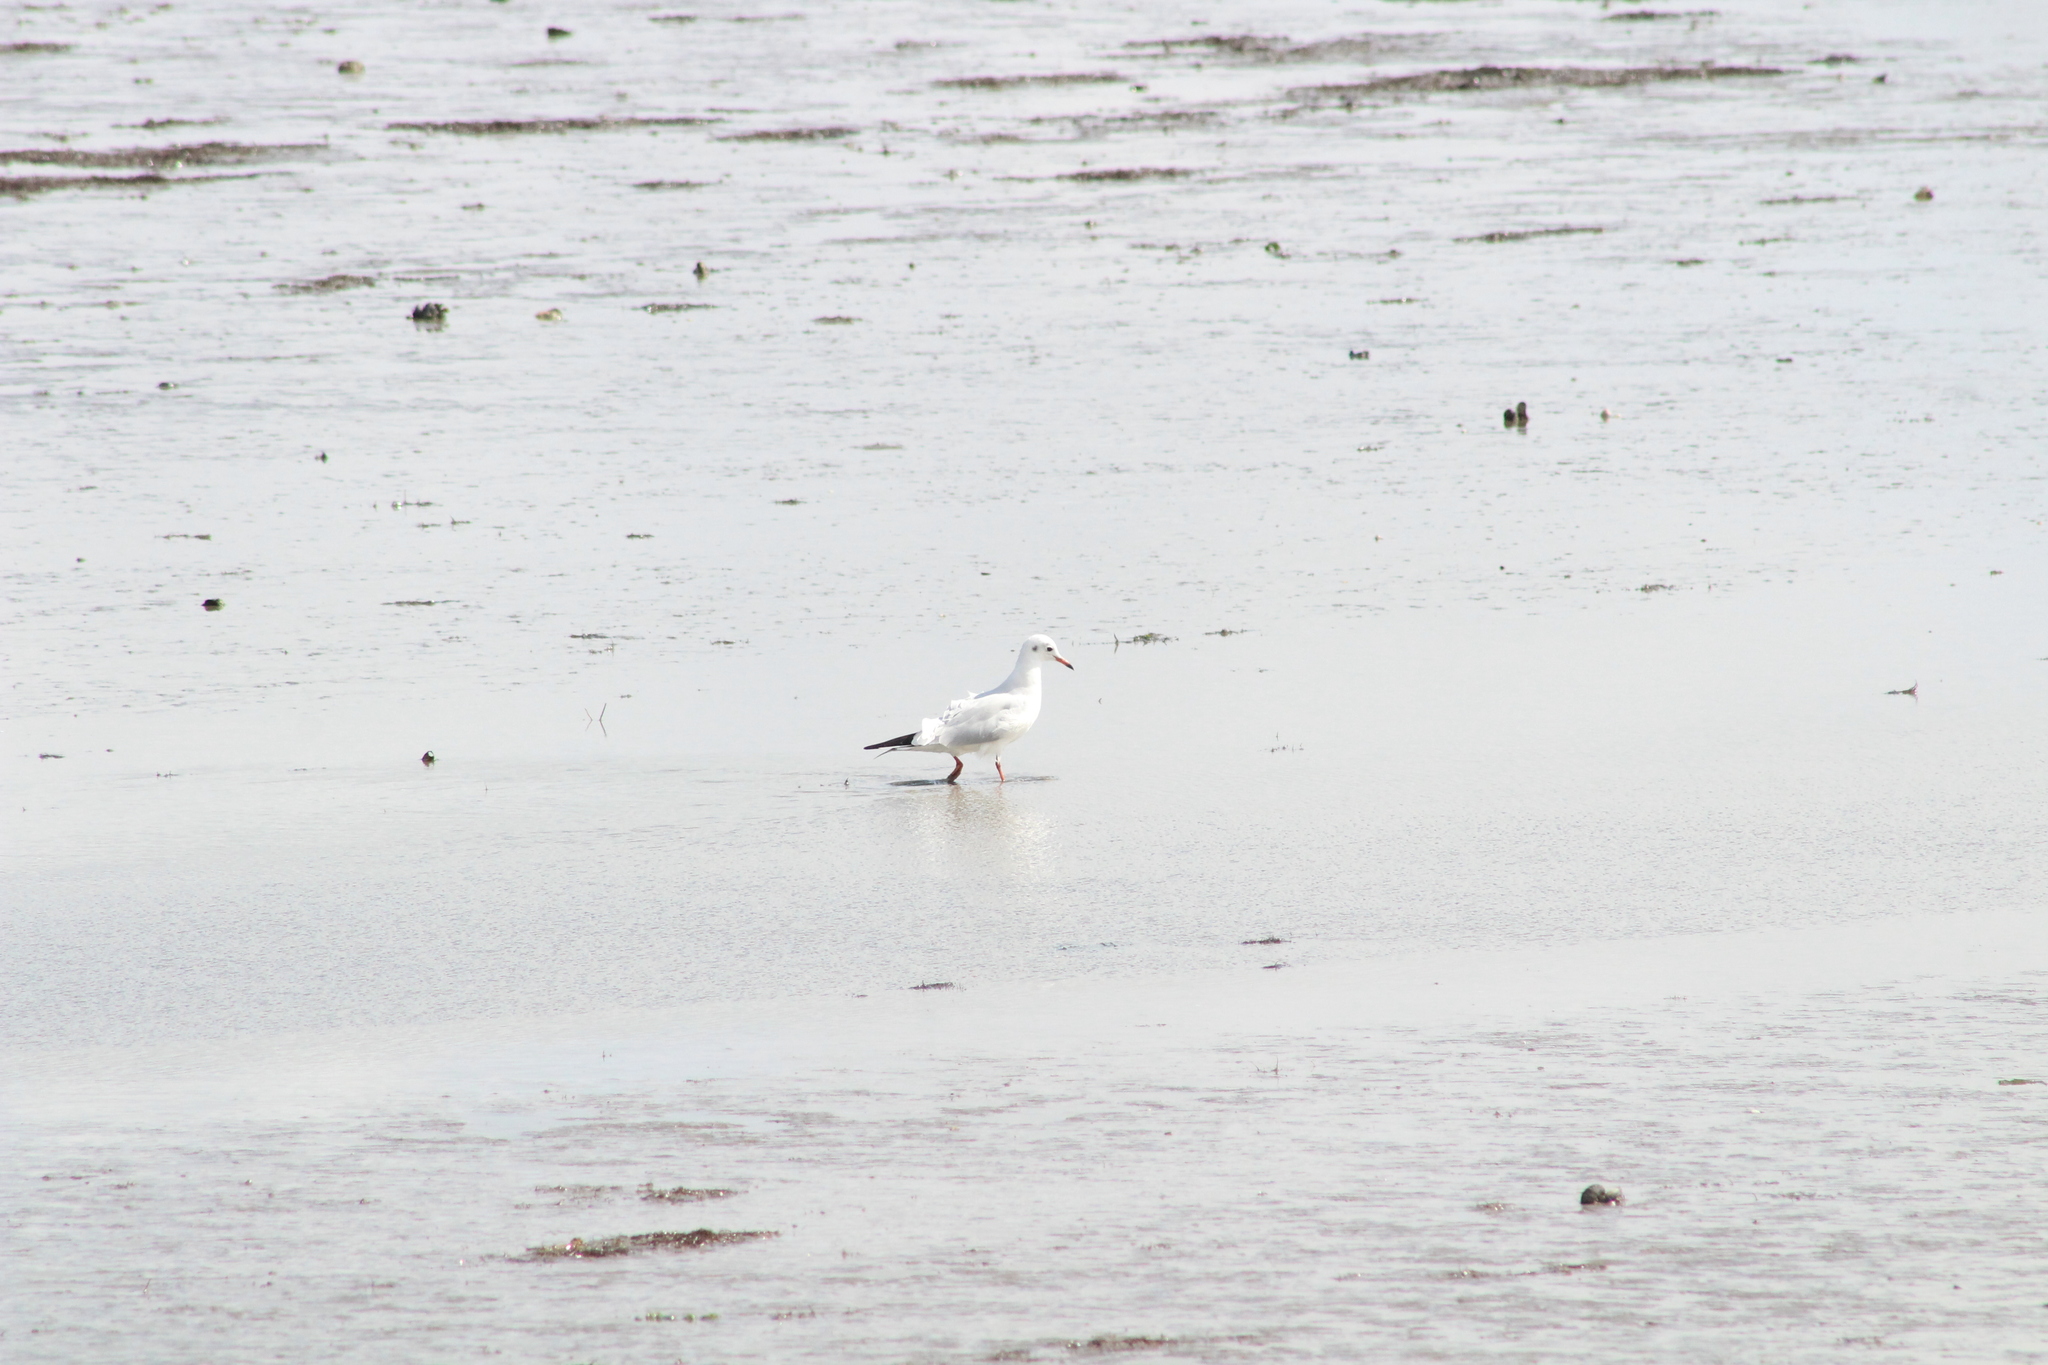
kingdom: Animalia
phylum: Chordata
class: Aves
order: Charadriiformes
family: Laridae
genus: Chroicocephalus
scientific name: Chroicocephalus ridibundus
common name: Black-headed gull
